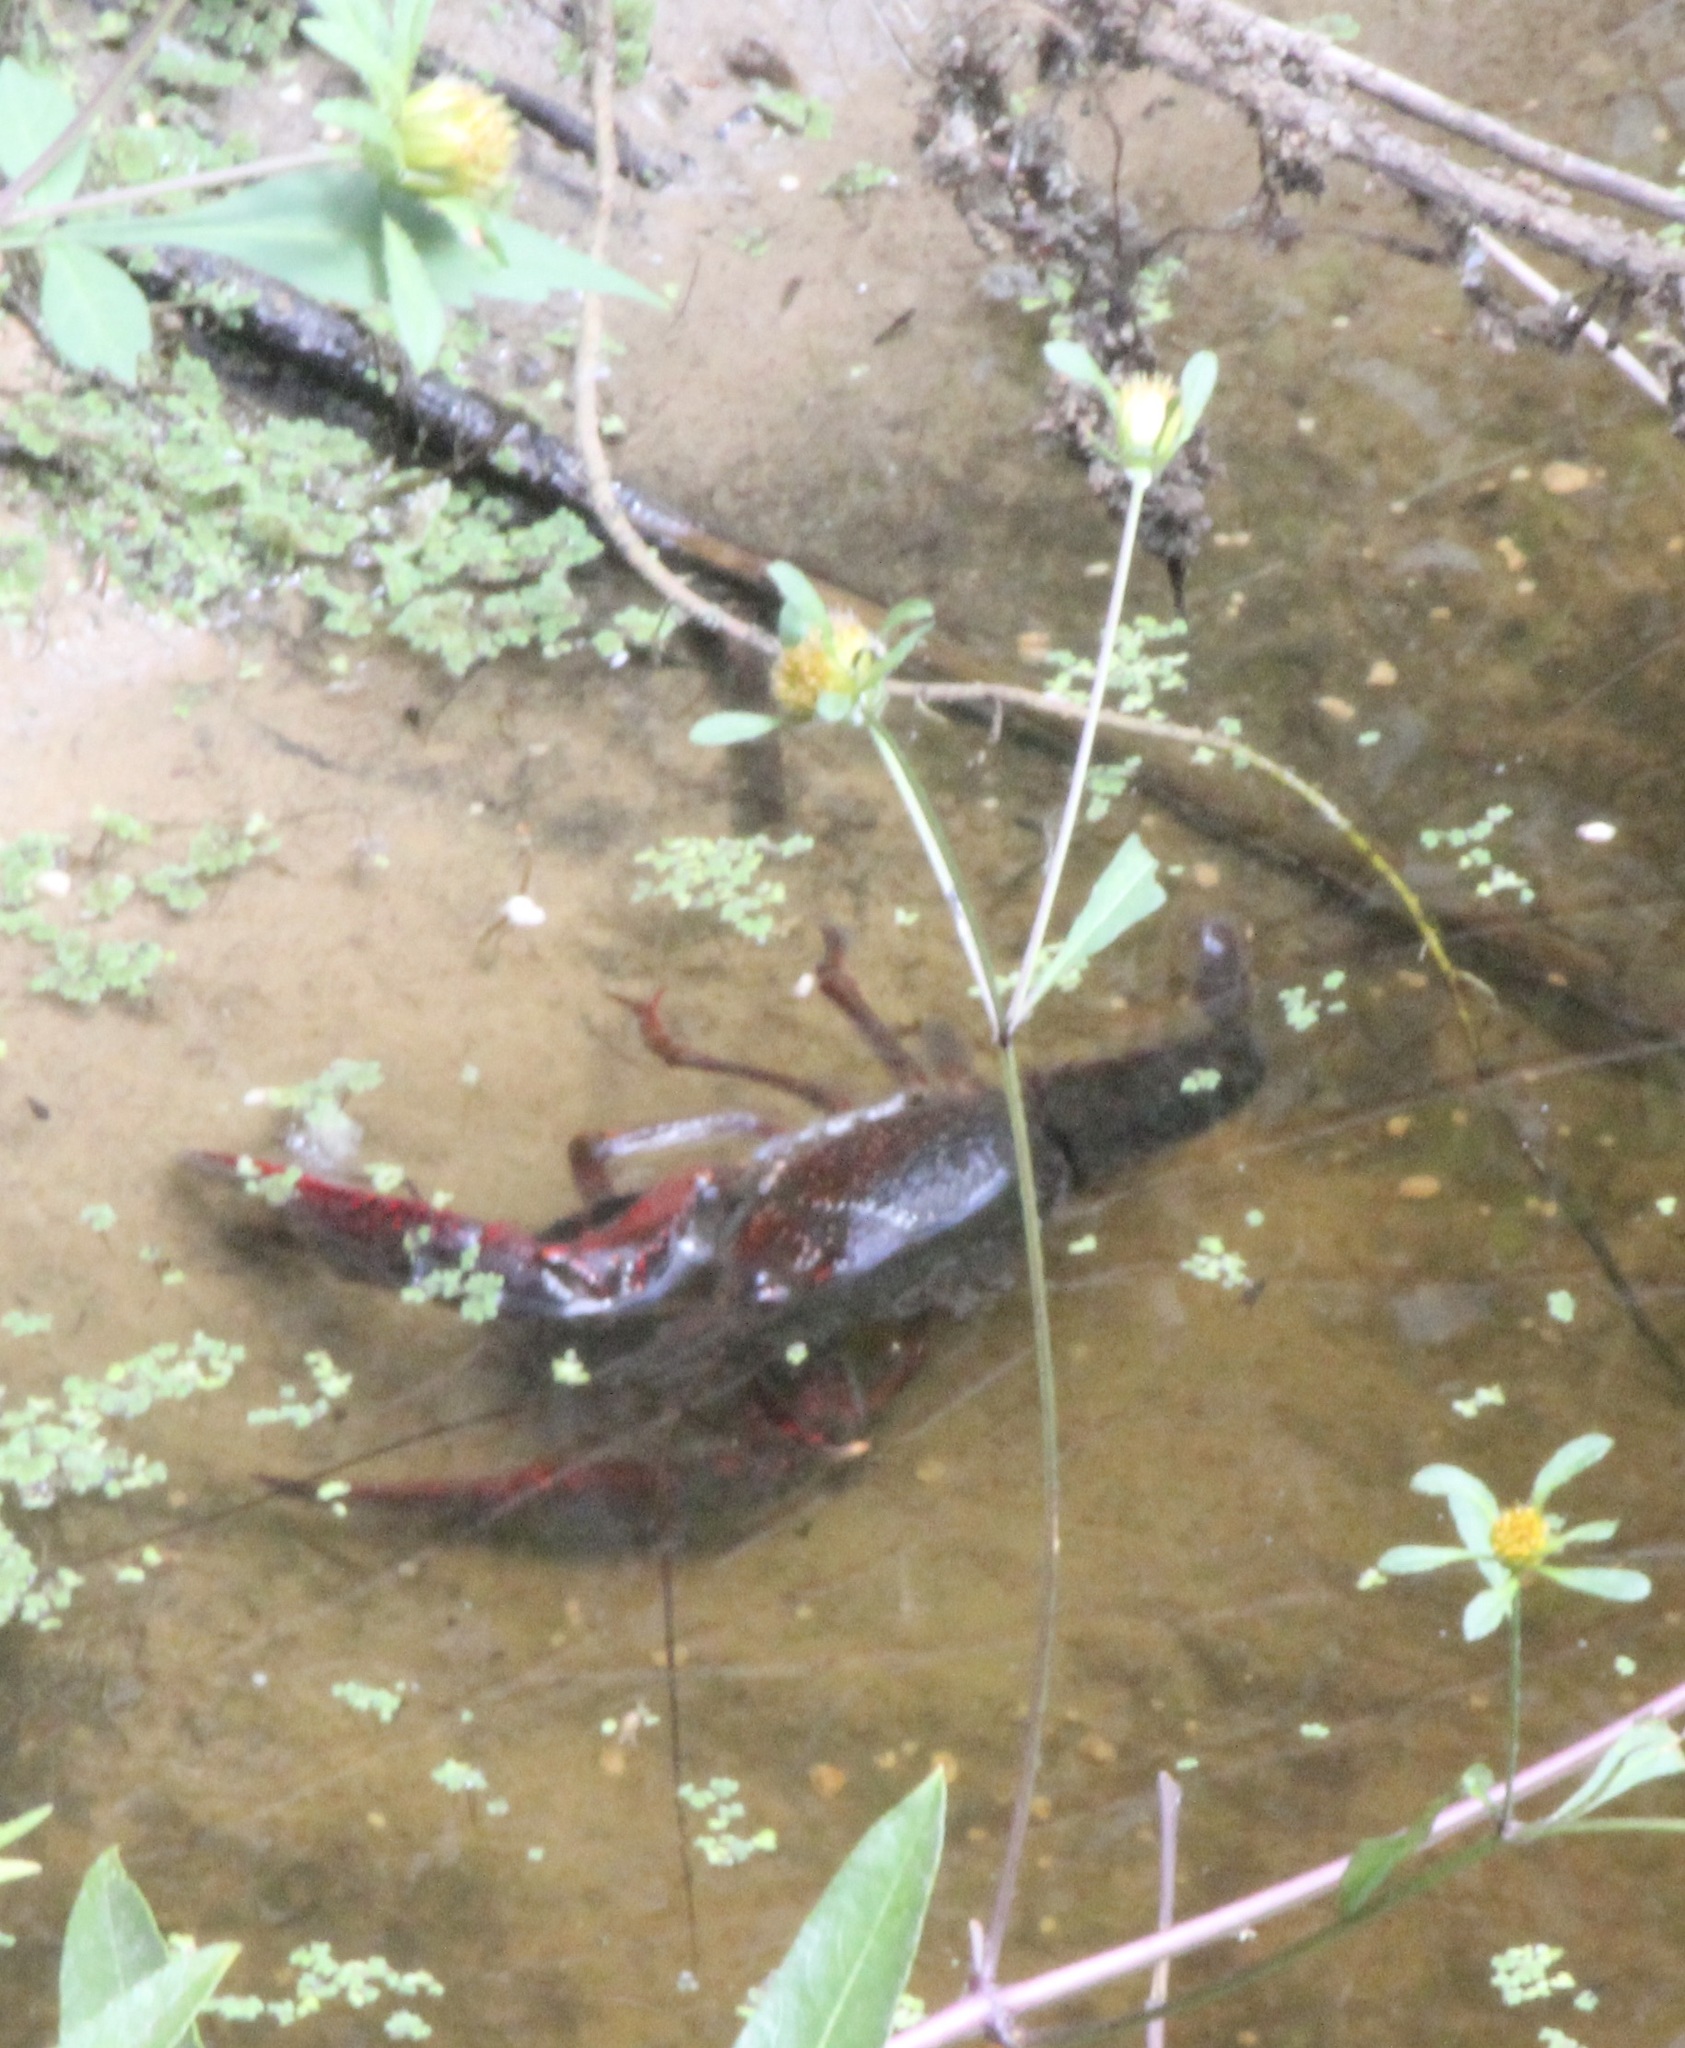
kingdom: Animalia
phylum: Arthropoda
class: Malacostraca
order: Decapoda
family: Cambaridae
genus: Procambarus
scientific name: Procambarus clarkii
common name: Red swamp crayfish
